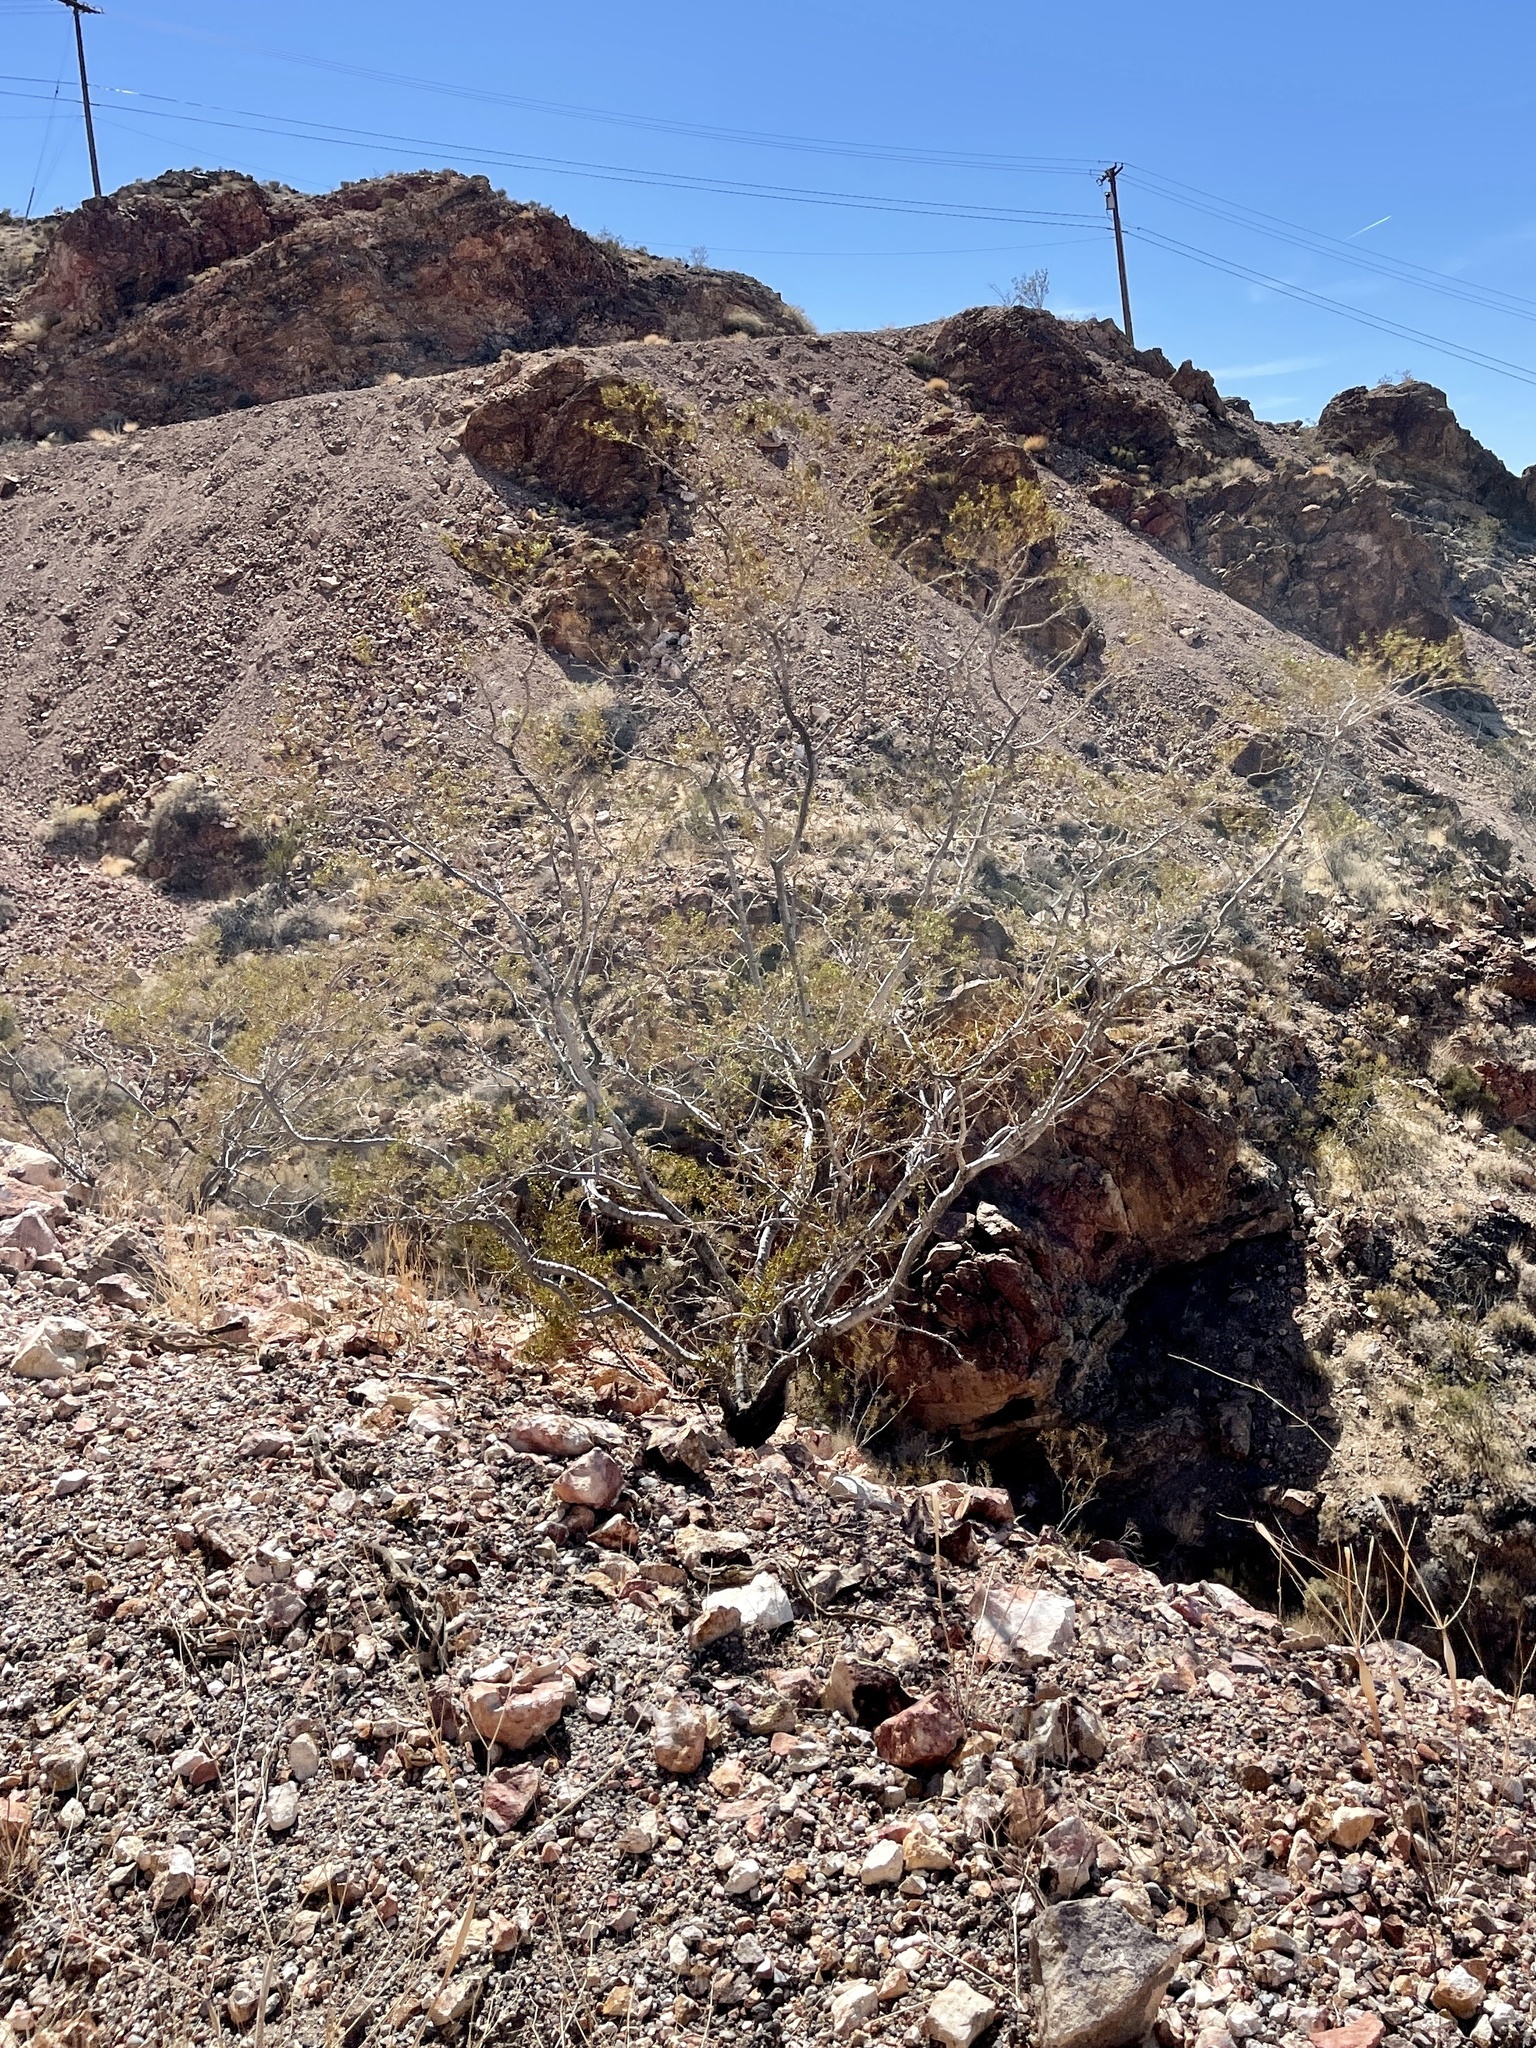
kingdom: Plantae
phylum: Tracheophyta
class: Magnoliopsida
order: Zygophyllales
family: Zygophyllaceae
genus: Larrea
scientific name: Larrea tridentata
